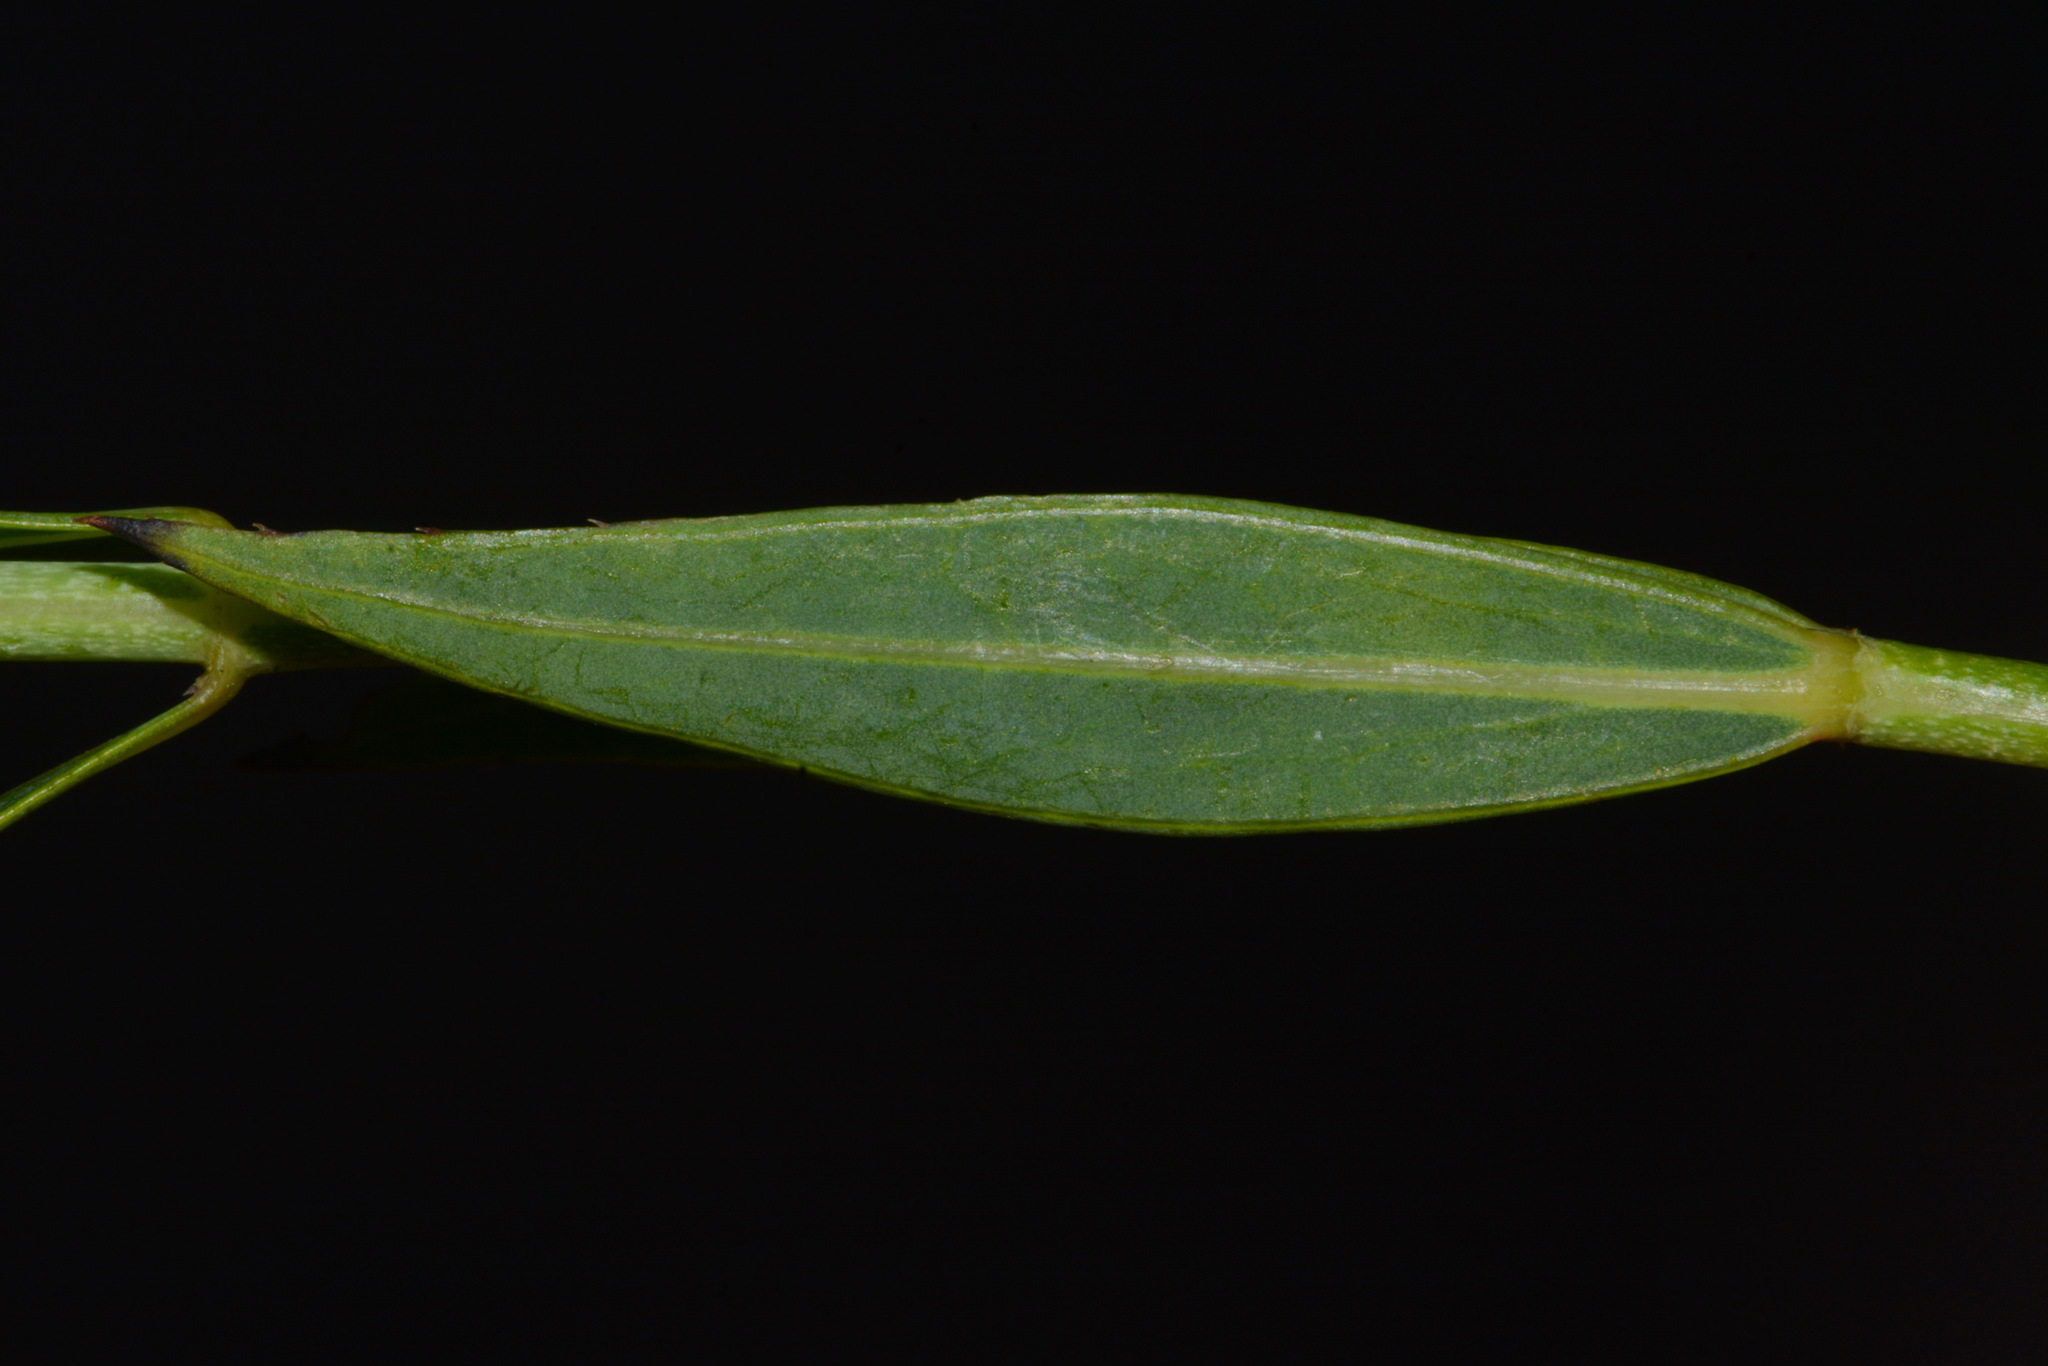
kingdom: Plantae
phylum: Tracheophyta
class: Magnoliopsida
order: Myrtales
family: Melastomataceae
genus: Rhexia
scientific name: Rhexia alifanus
